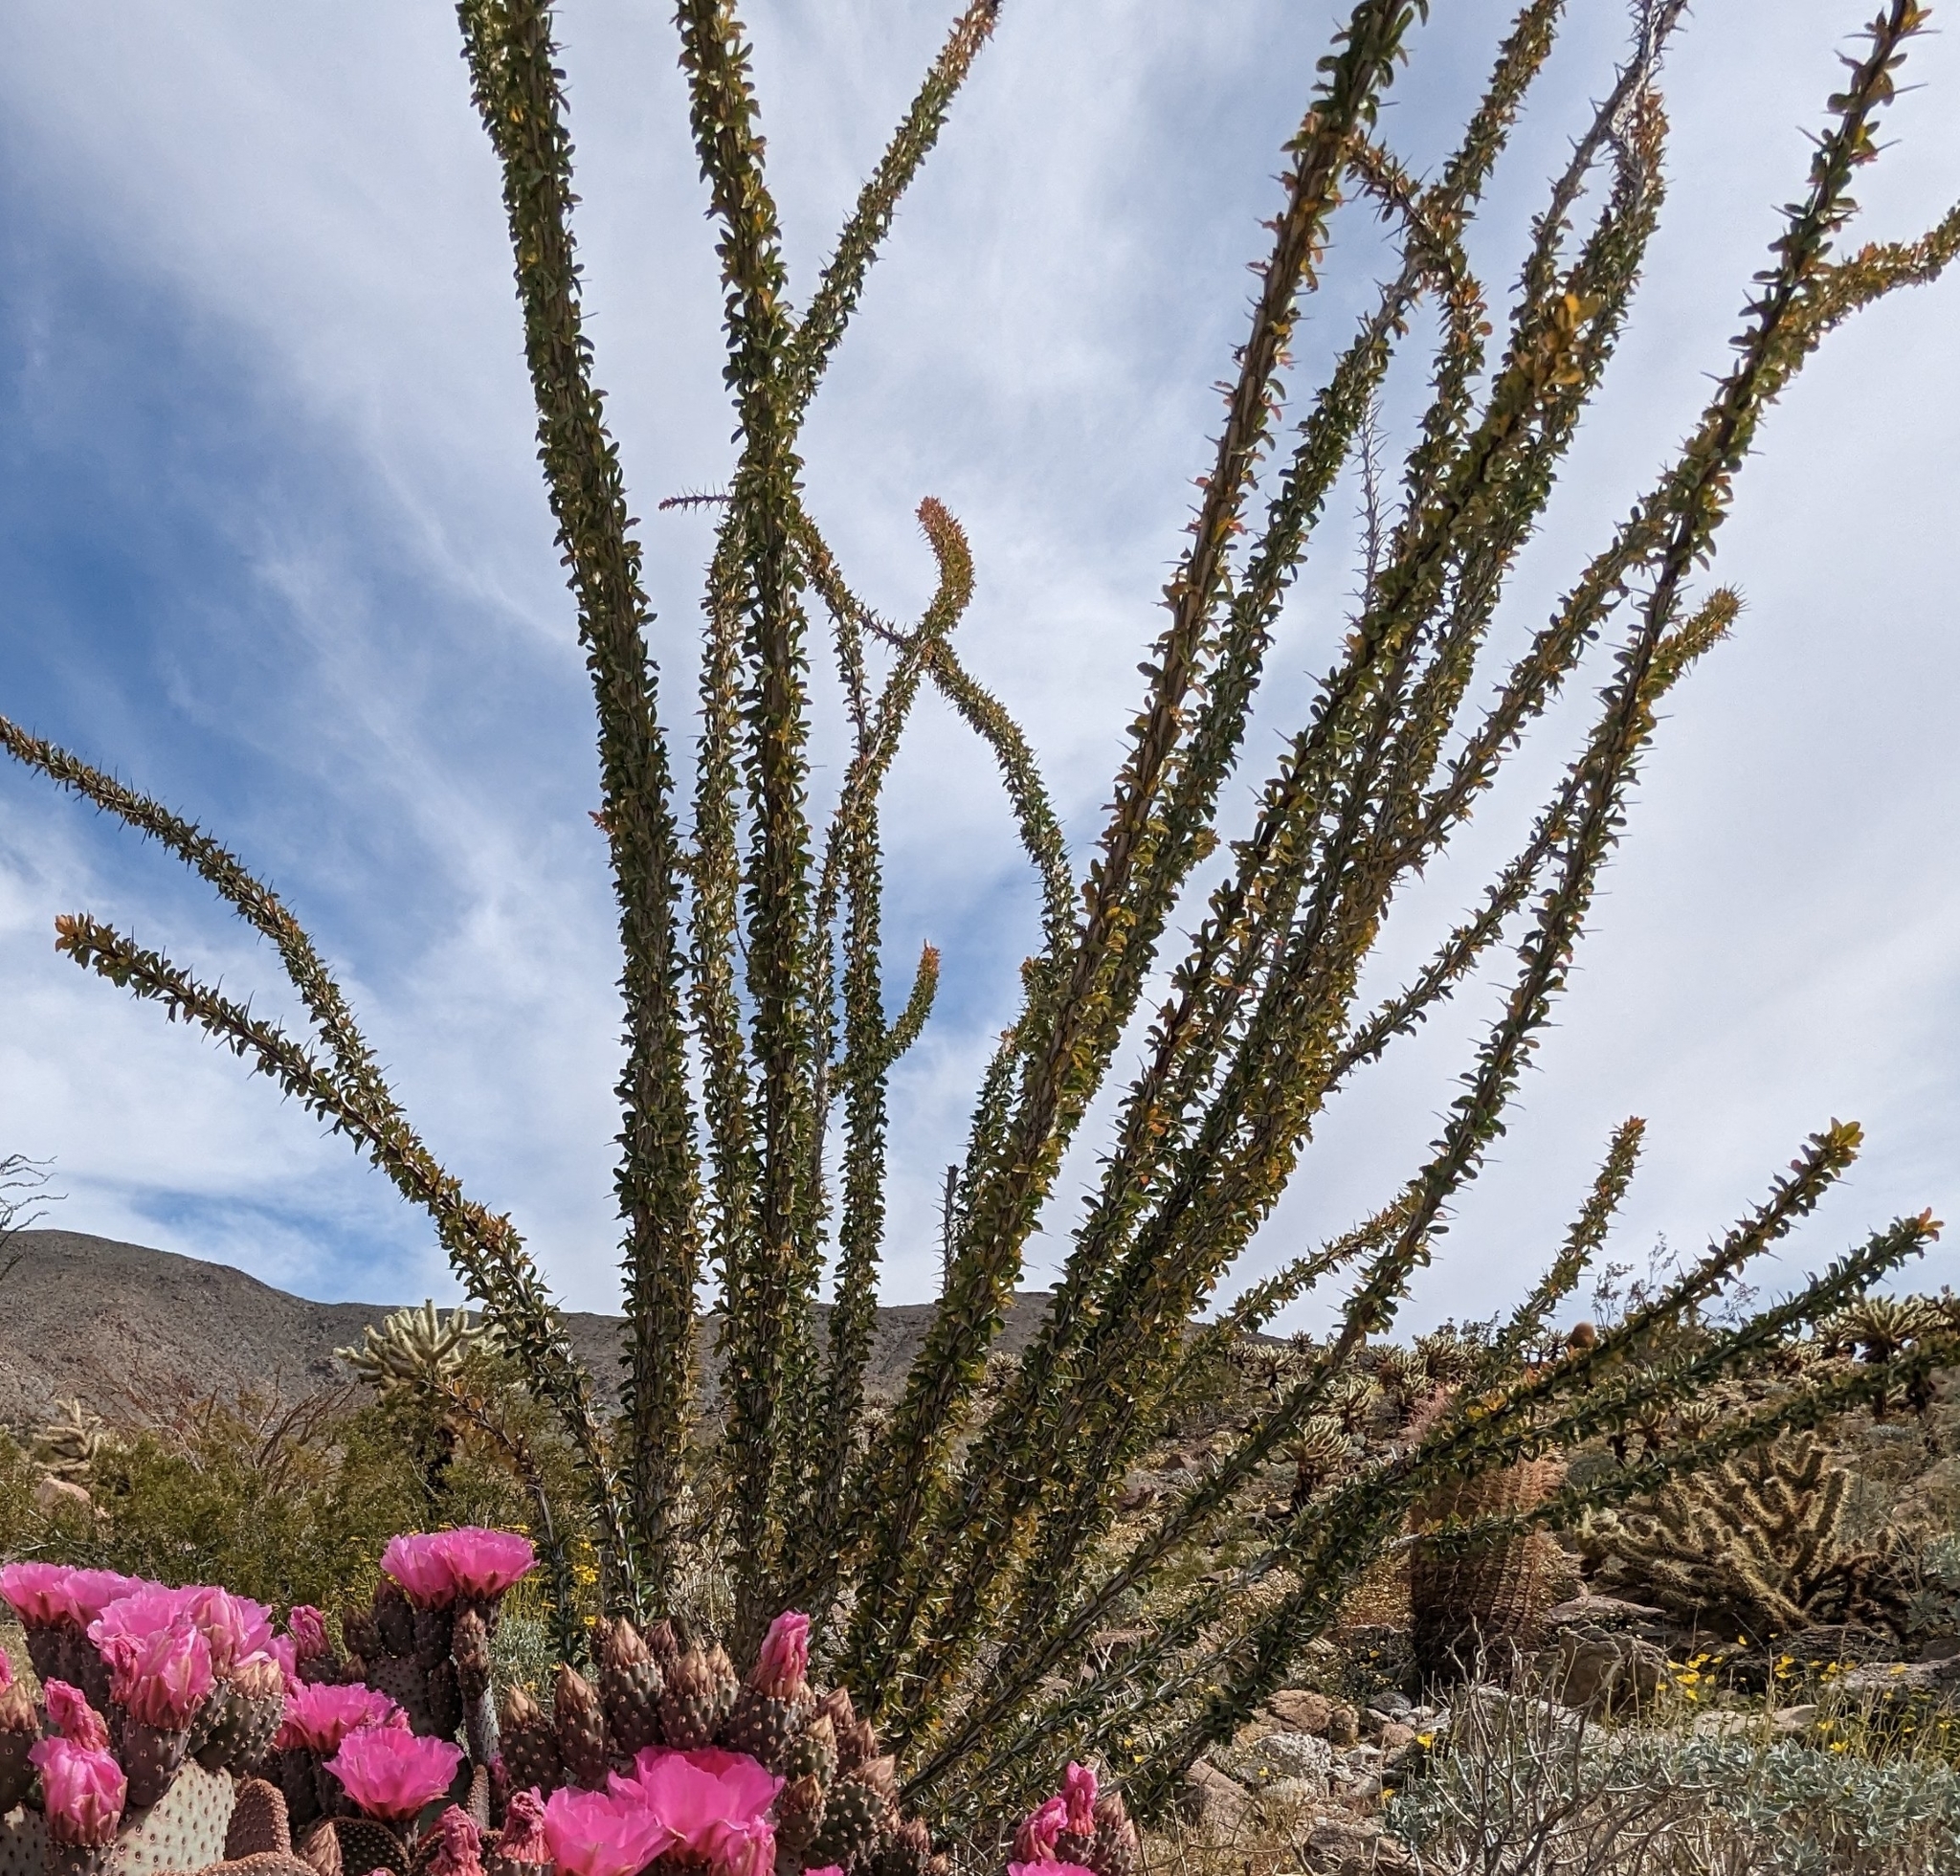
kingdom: Plantae
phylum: Tracheophyta
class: Magnoliopsida
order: Ericales
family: Fouquieriaceae
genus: Fouquieria
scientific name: Fouquieria splendens
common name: Vine-cactus
